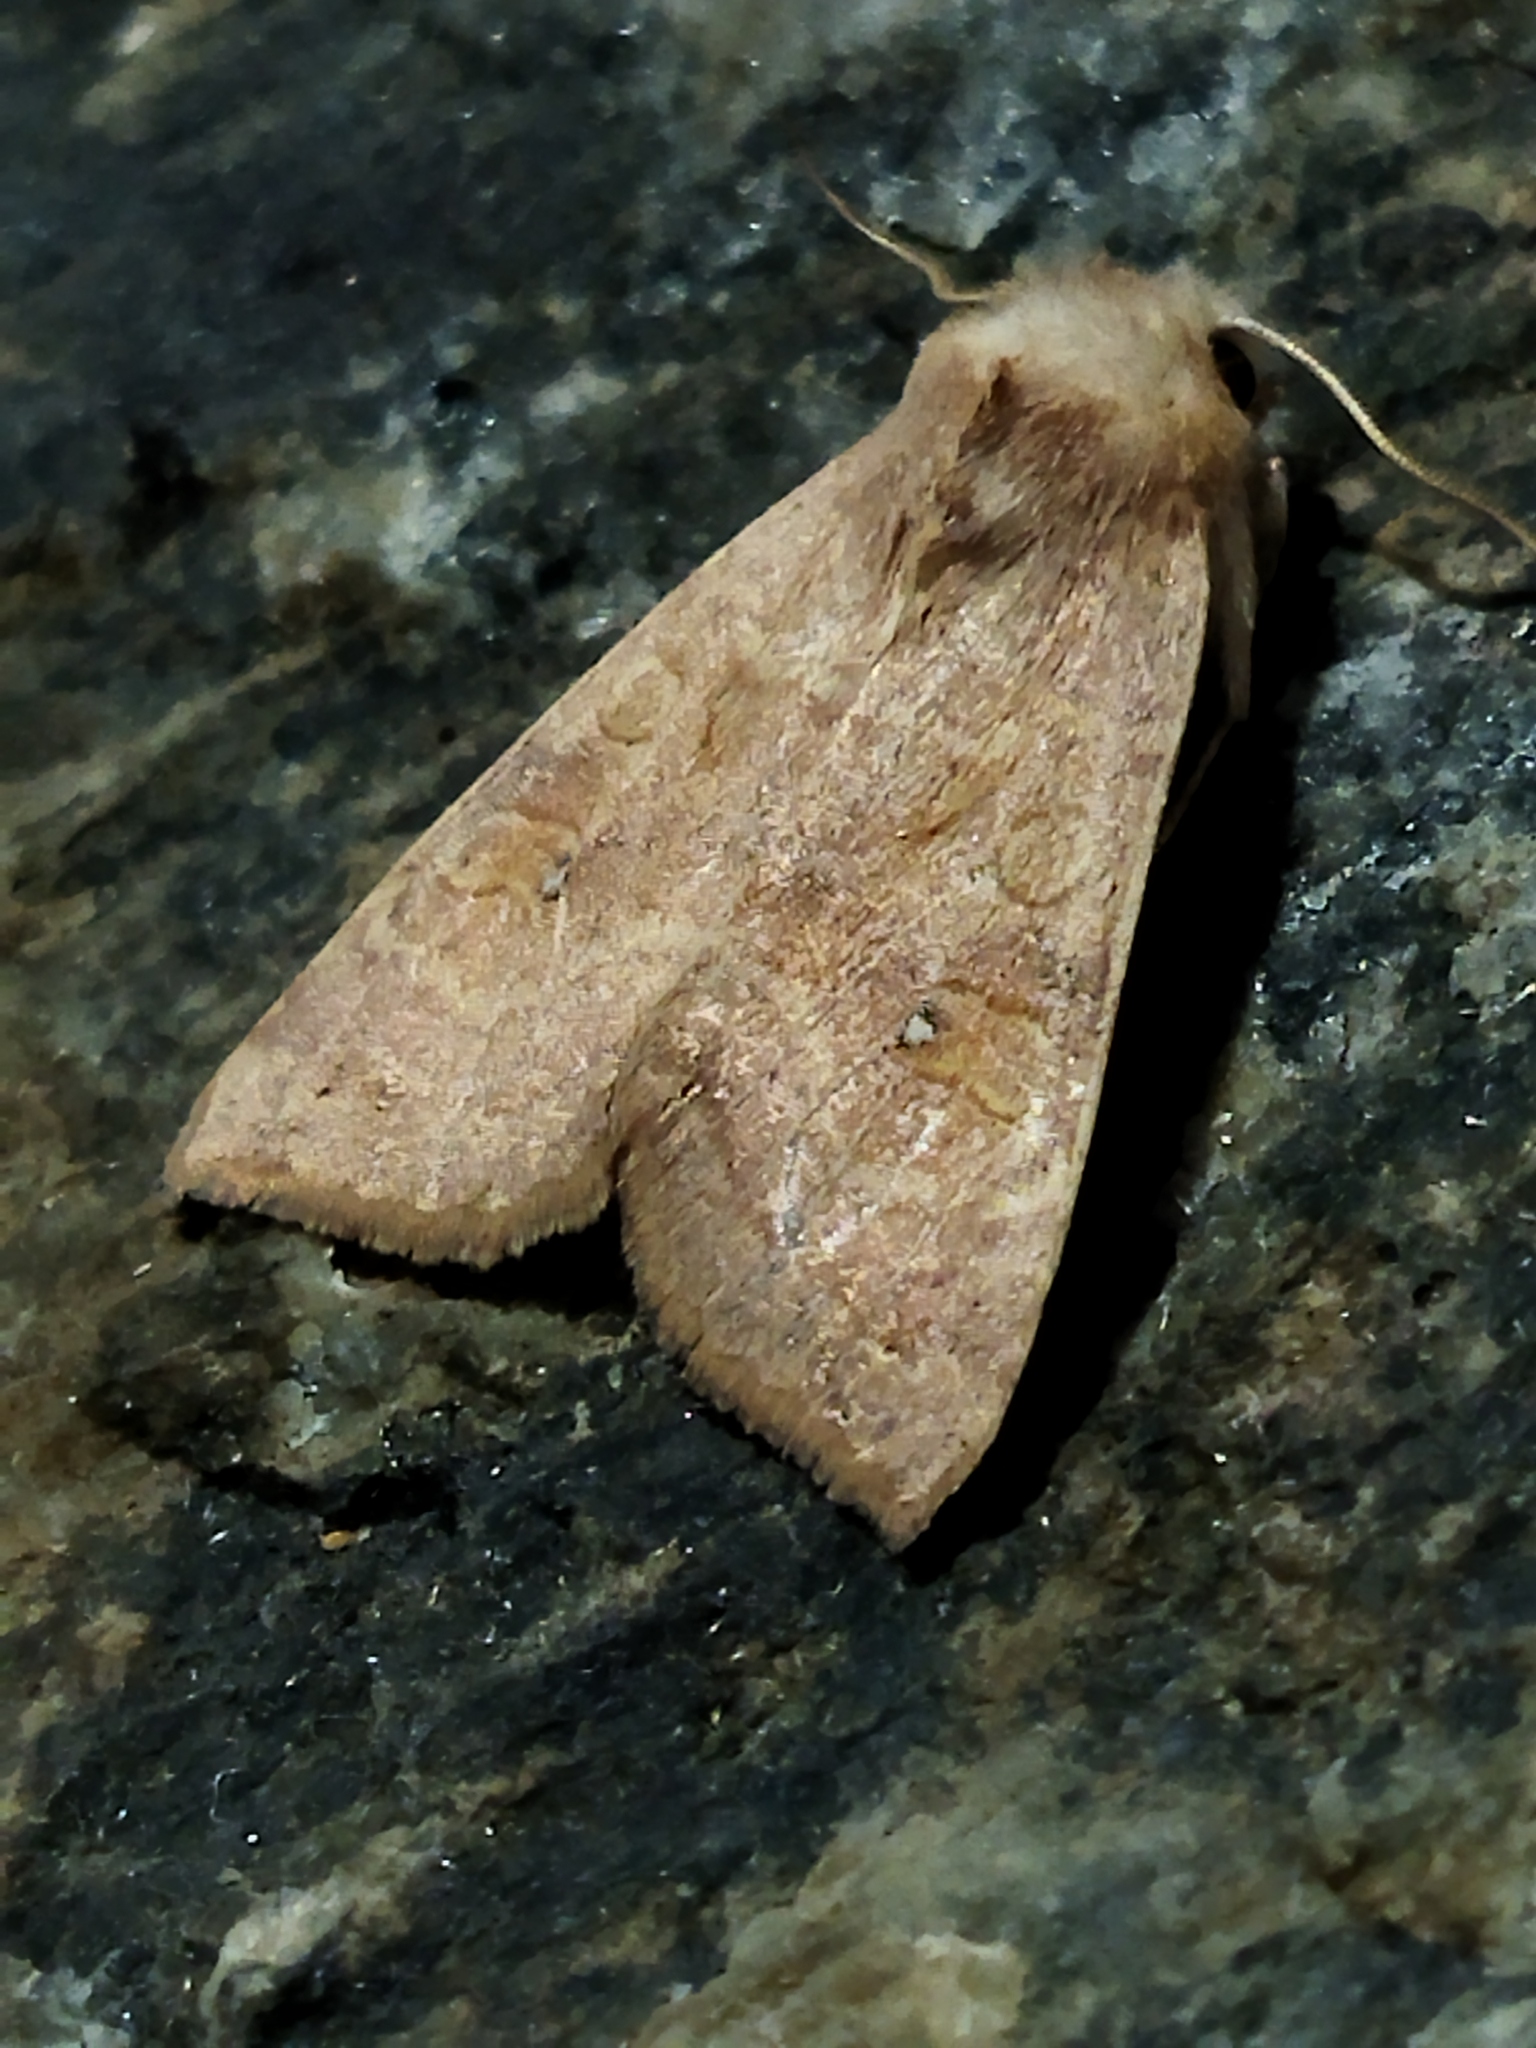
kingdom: Animalia
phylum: Arthropoda
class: Insecta
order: Lepidoptera
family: Noctuidae
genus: Xanthia
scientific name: Xanthia ocellaris
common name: Pale-lemon sallow
